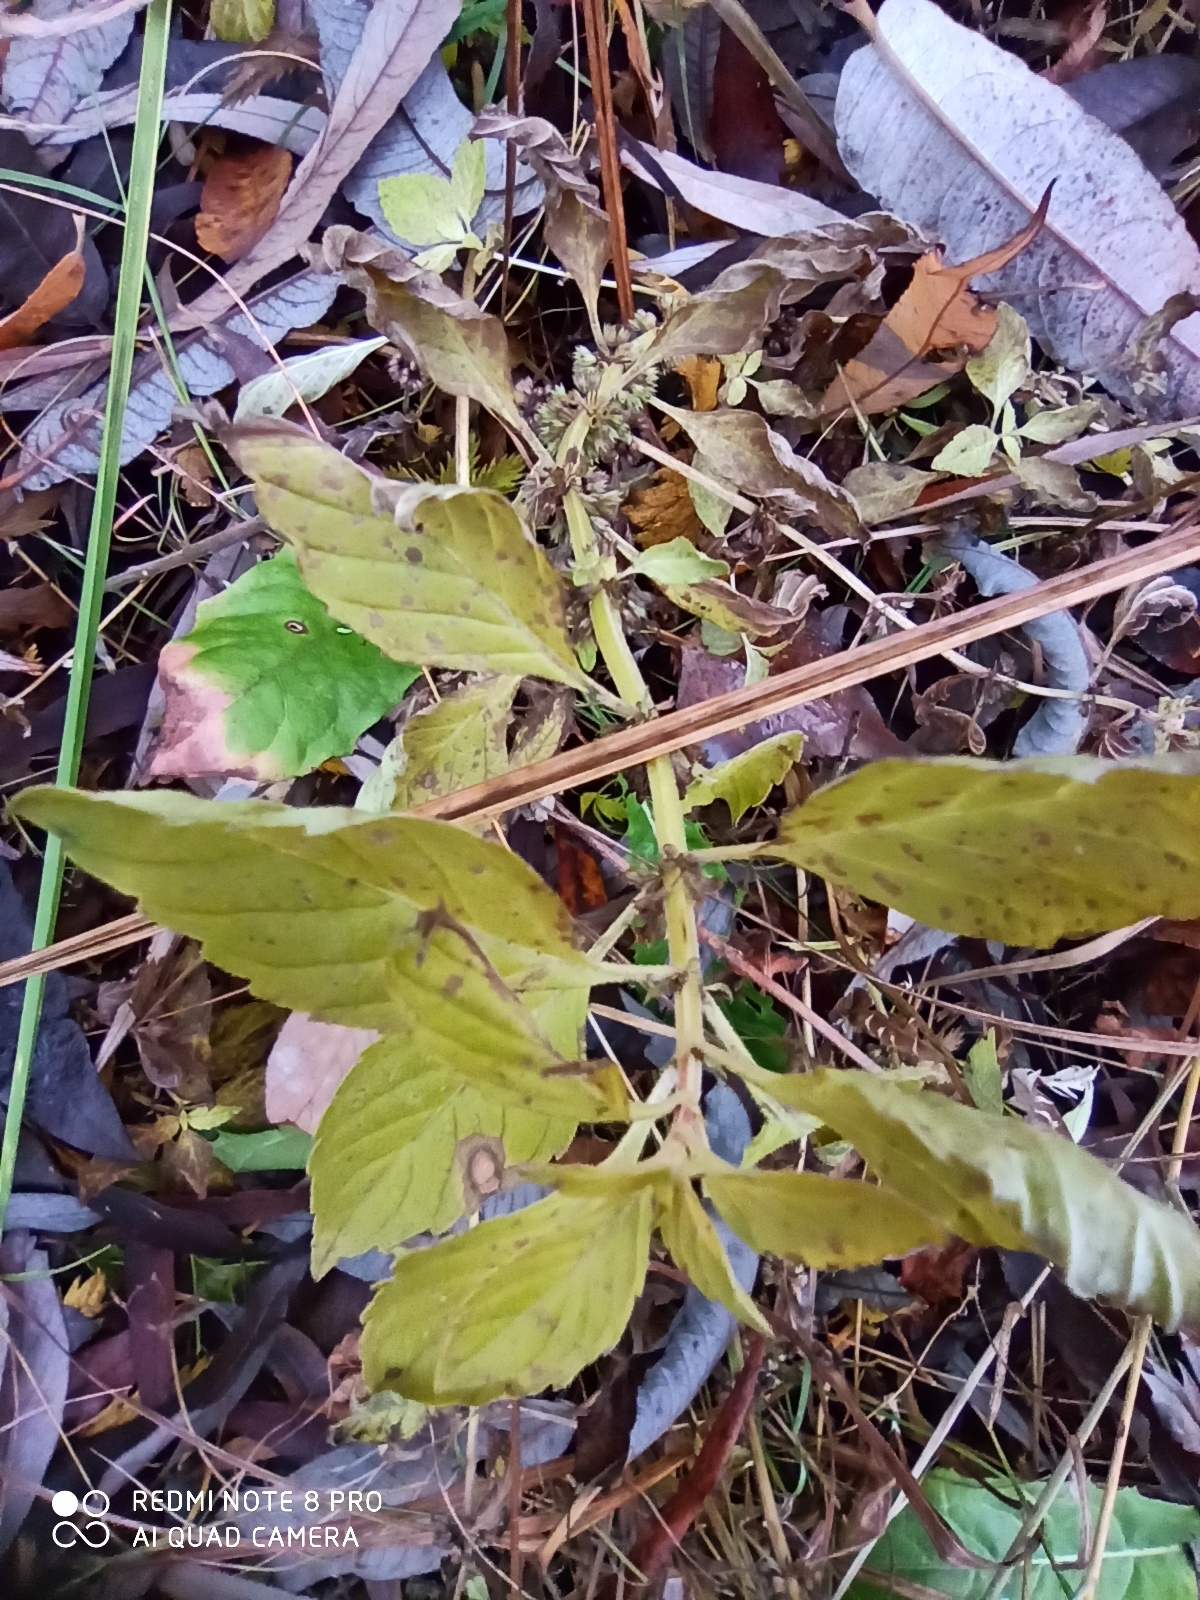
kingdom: Plantae
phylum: Tracheophyta
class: Magnoliopsida
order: Lamiales
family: Lamiaceae
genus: Mentha
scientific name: Mentha arvensis
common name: Corn mint
